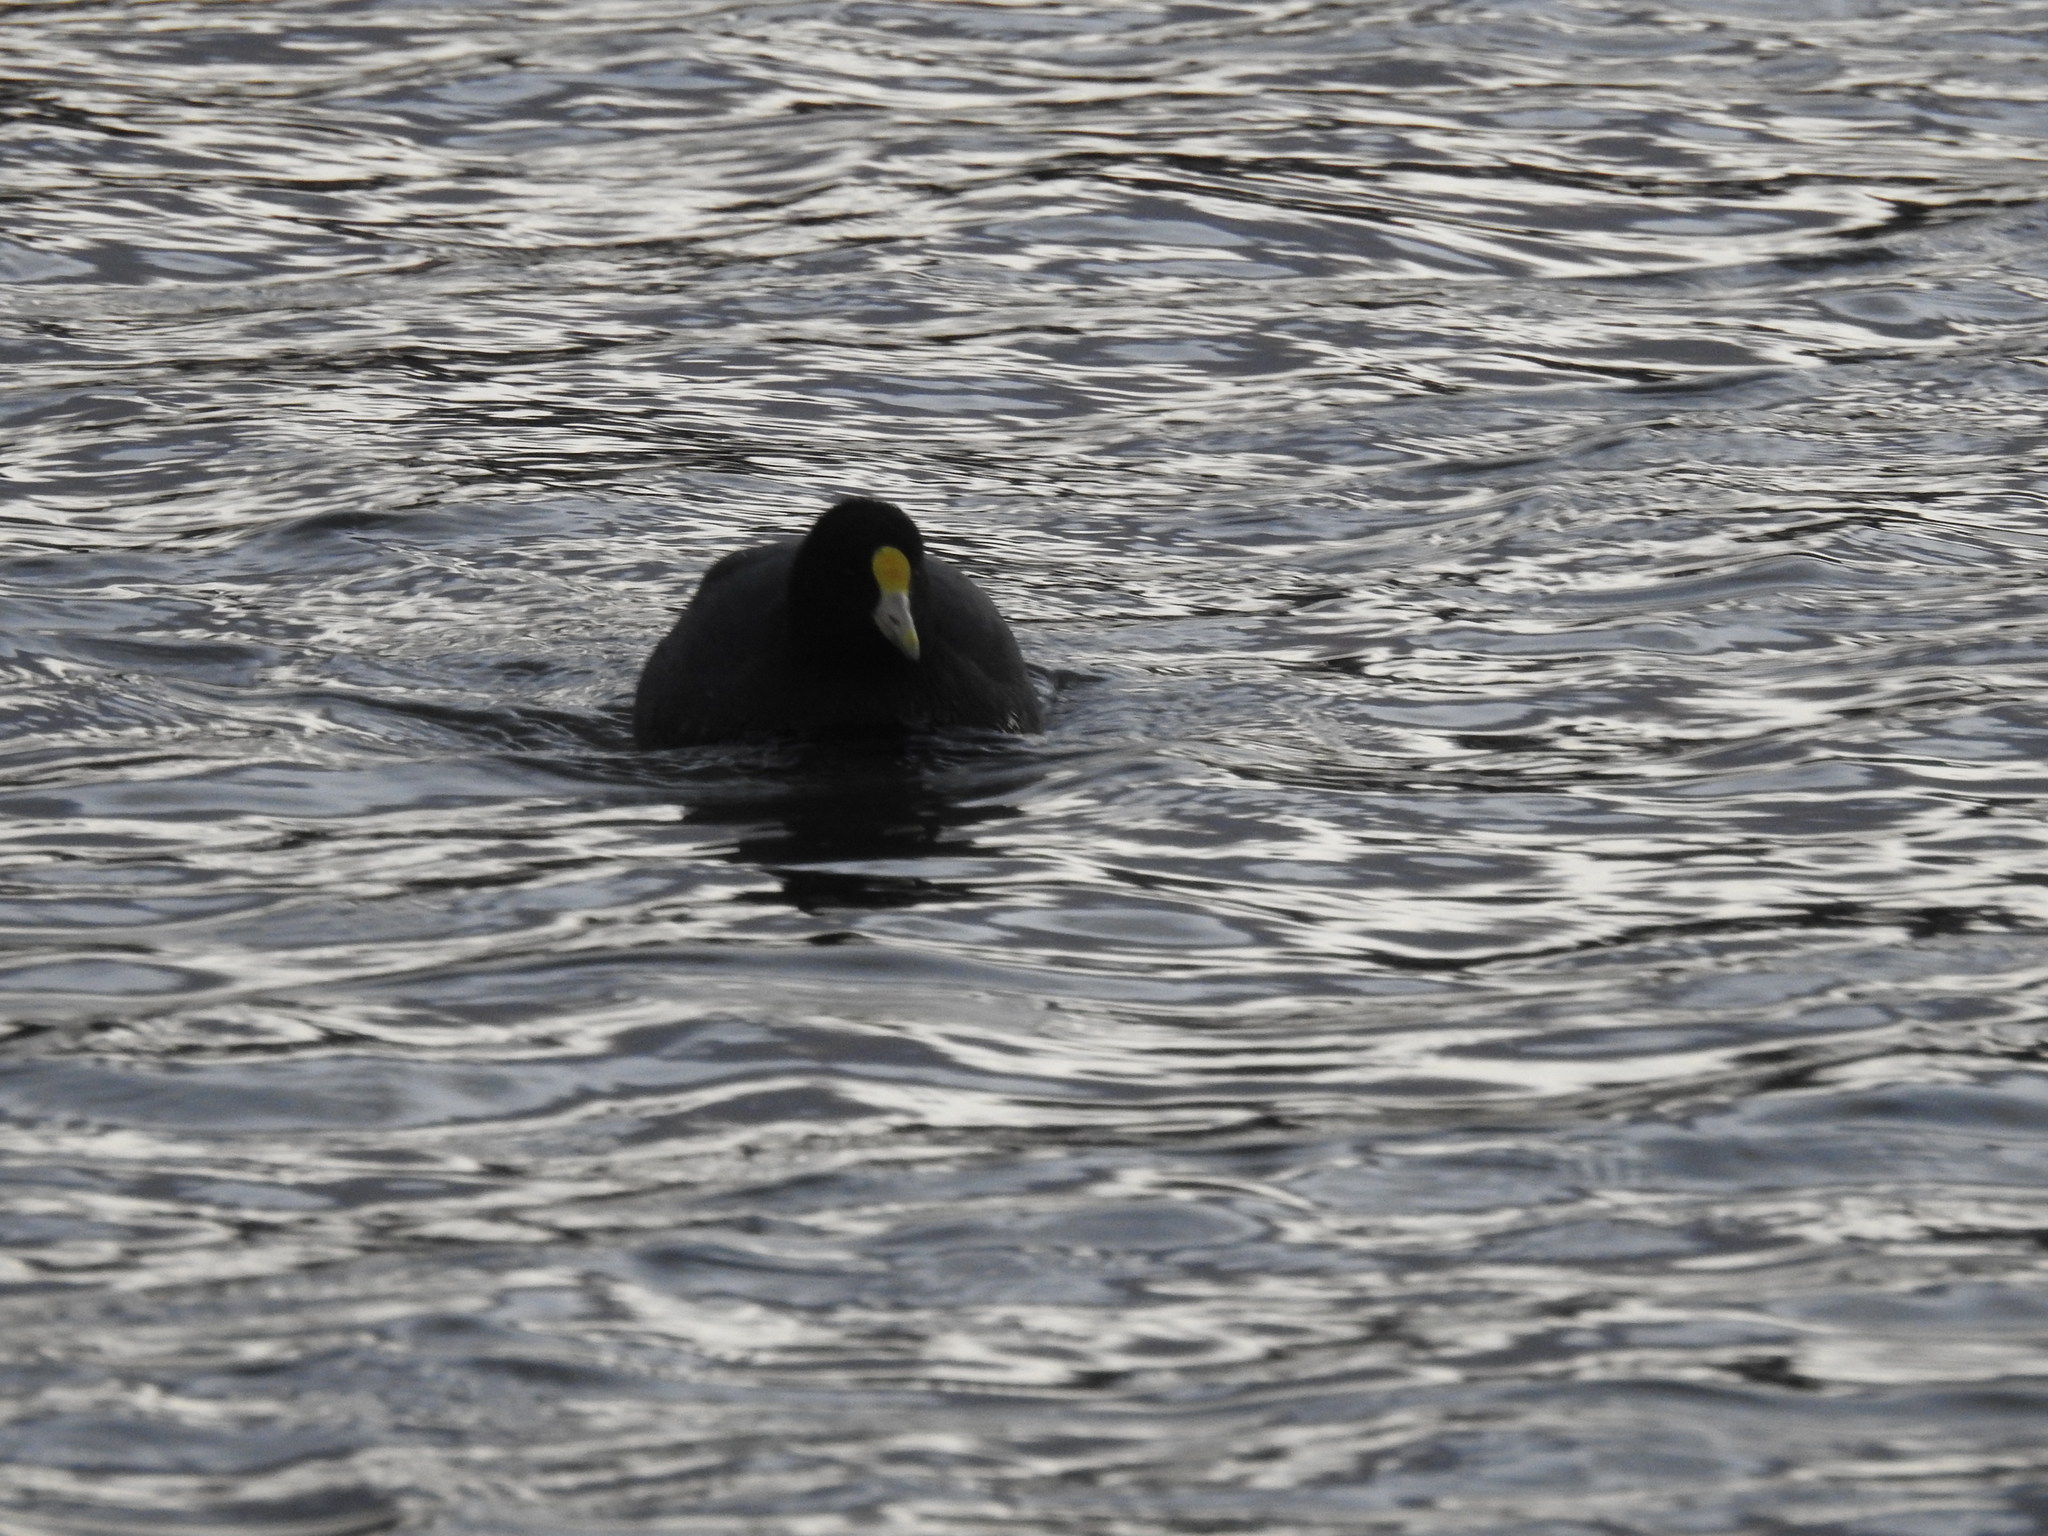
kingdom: Animalia
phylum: Chordata
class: Aves
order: Gruiformes
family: Rallidae
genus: Fulica
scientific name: Fulica leucoptera
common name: White-winged coot
